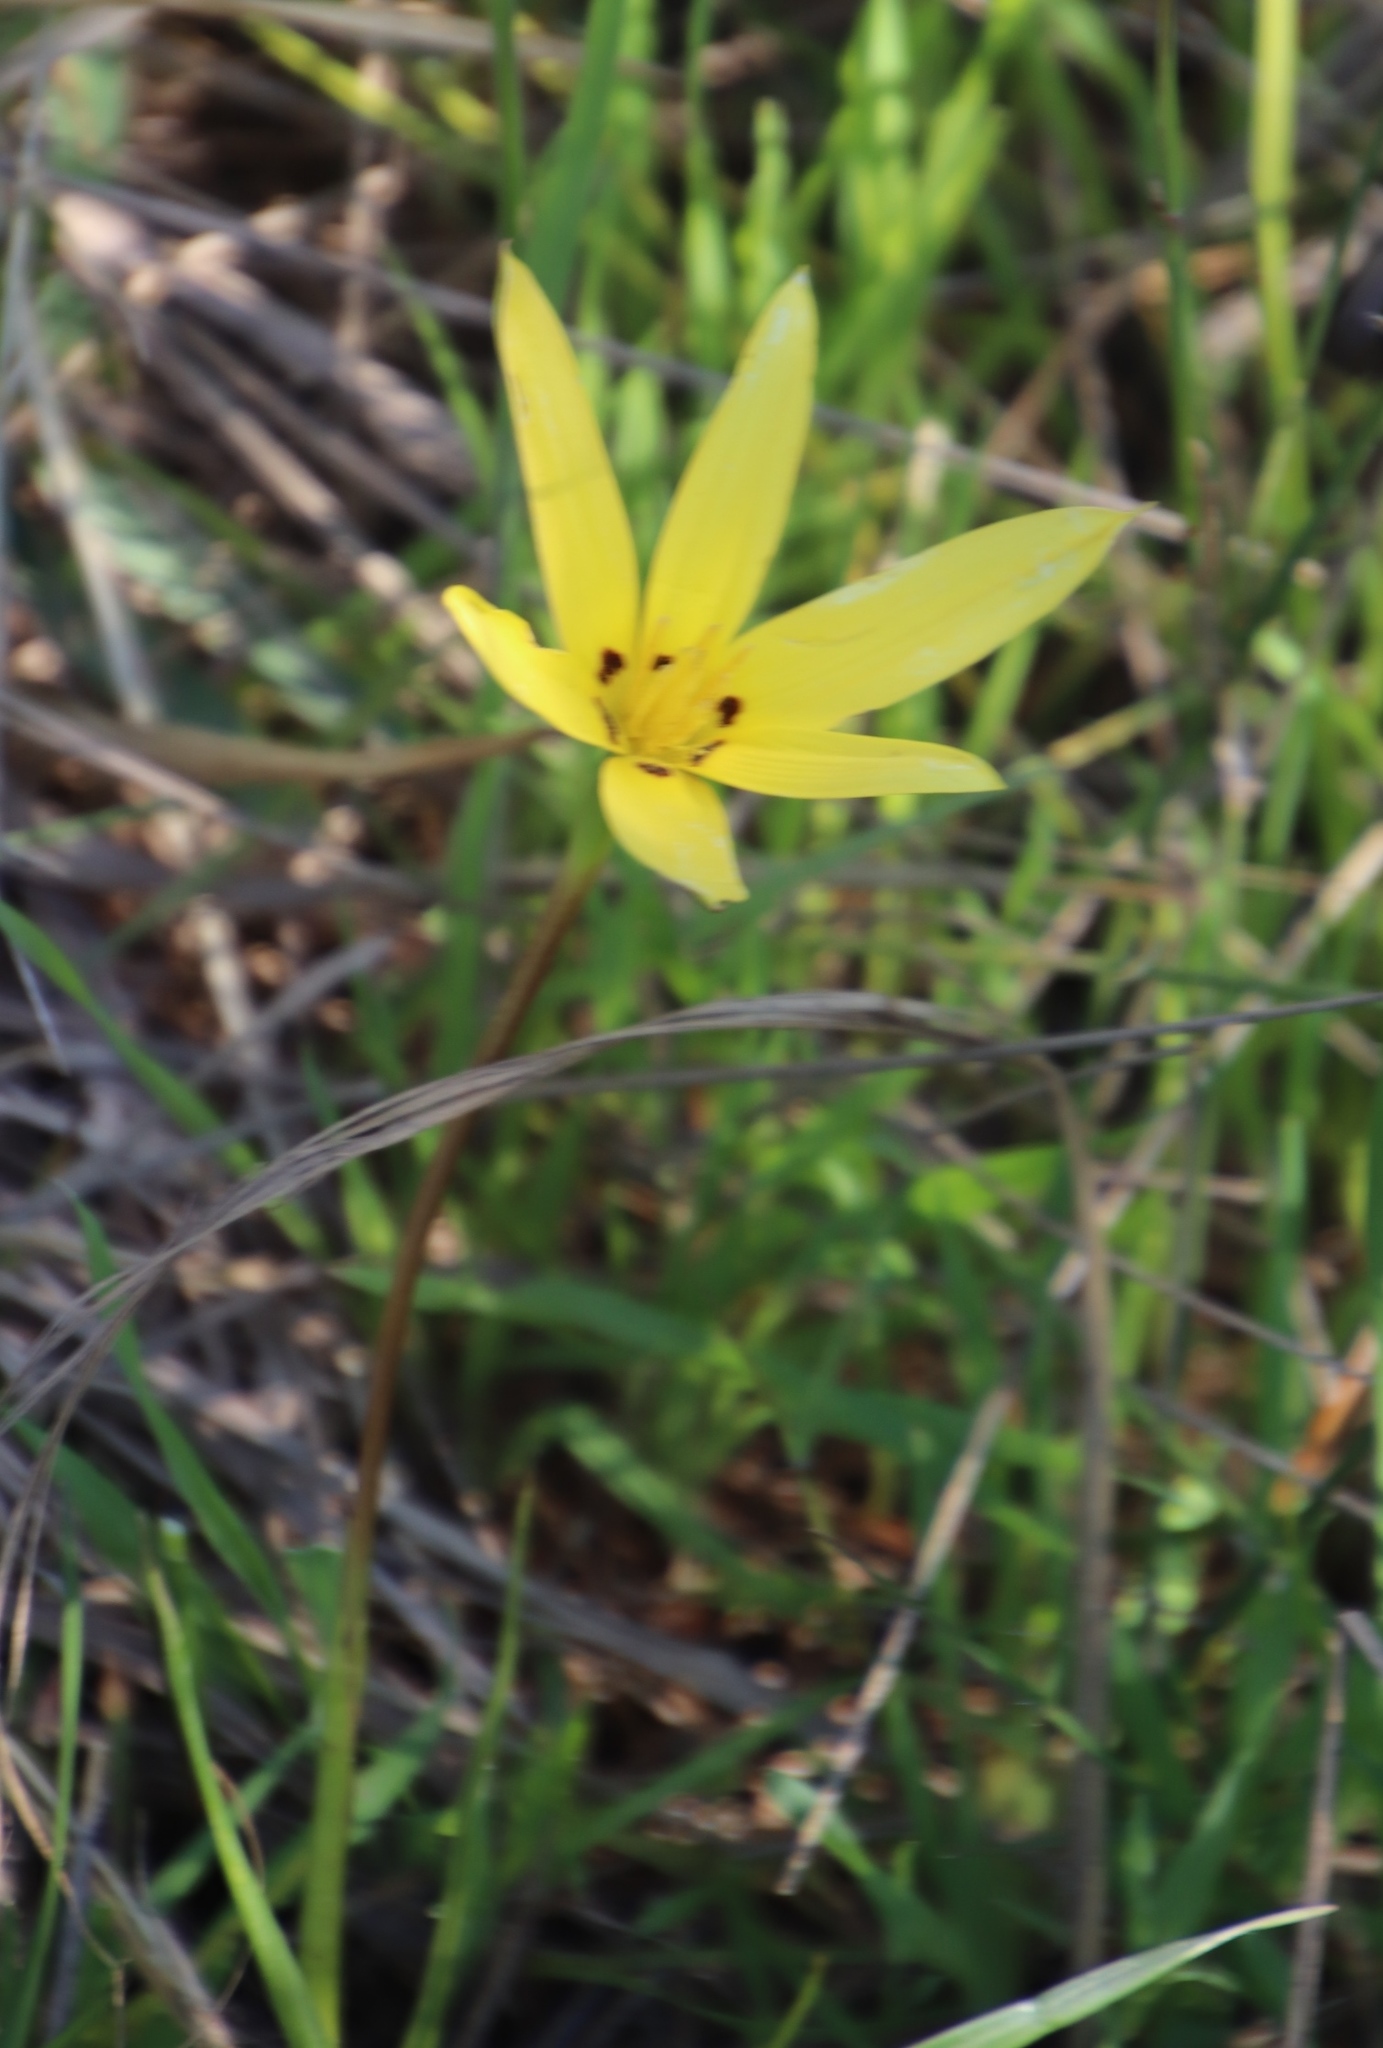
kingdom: Plantae
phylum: Tracheophyta
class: Liliopsida
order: Asparagales
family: Hypoxidaceae
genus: Pauridia
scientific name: Pauridia capensis
